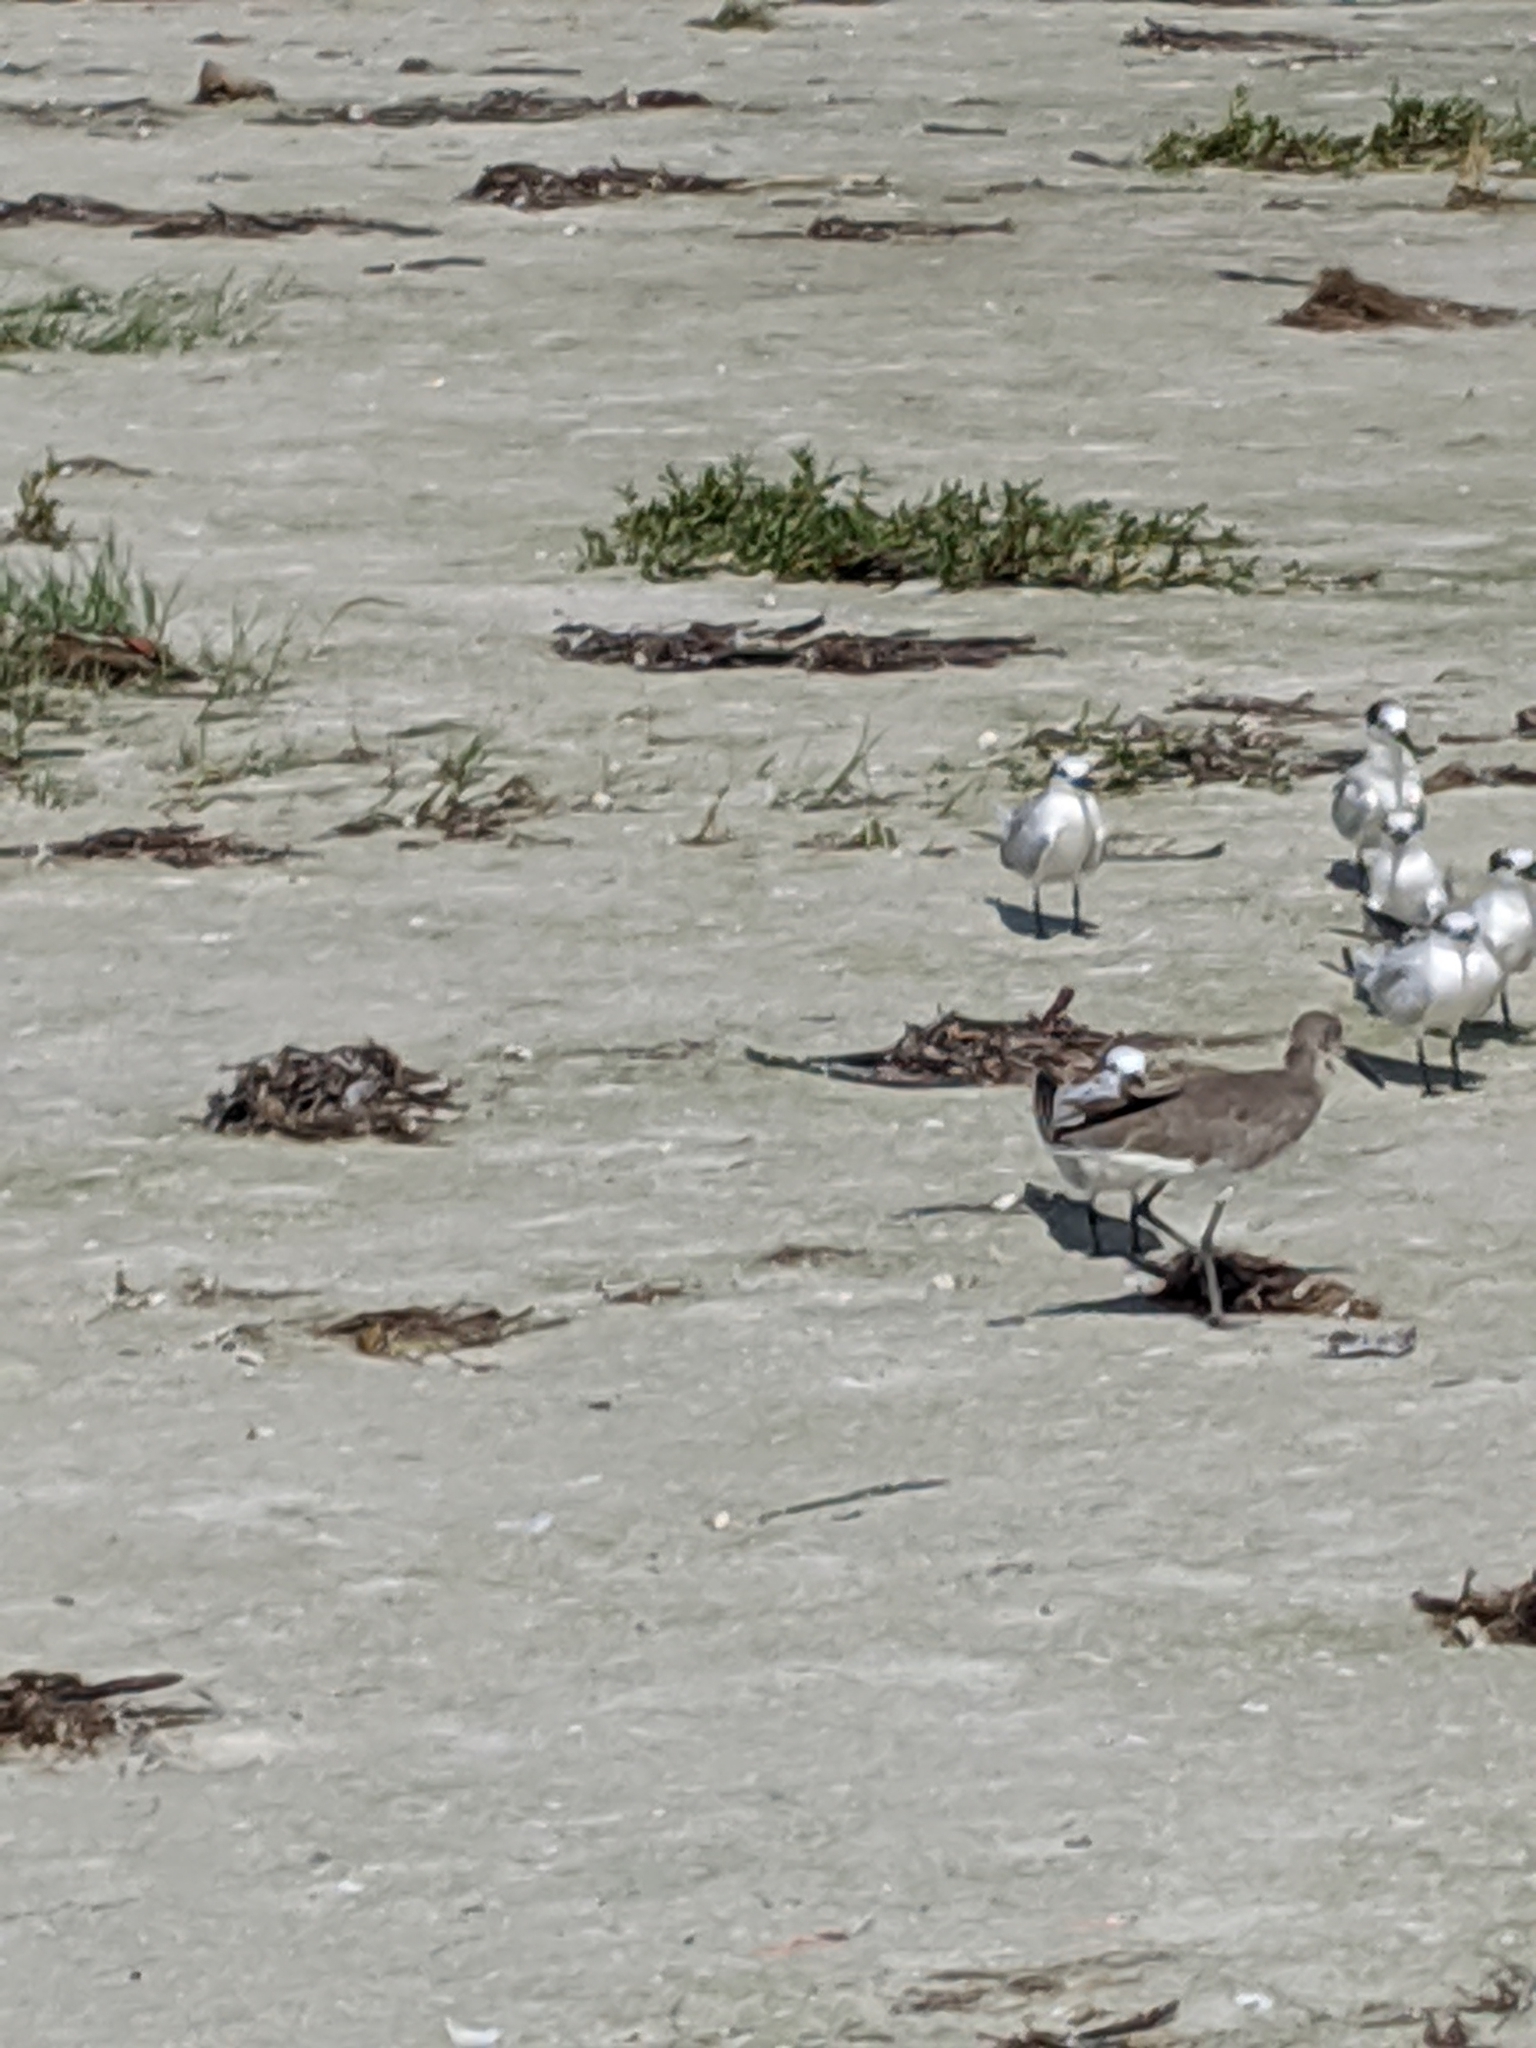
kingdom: Animalia
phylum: Chordata
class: Aves
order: Charadriiformes
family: Scolopacidae
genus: Tringa
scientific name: Tringa semipalmata
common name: Willet
